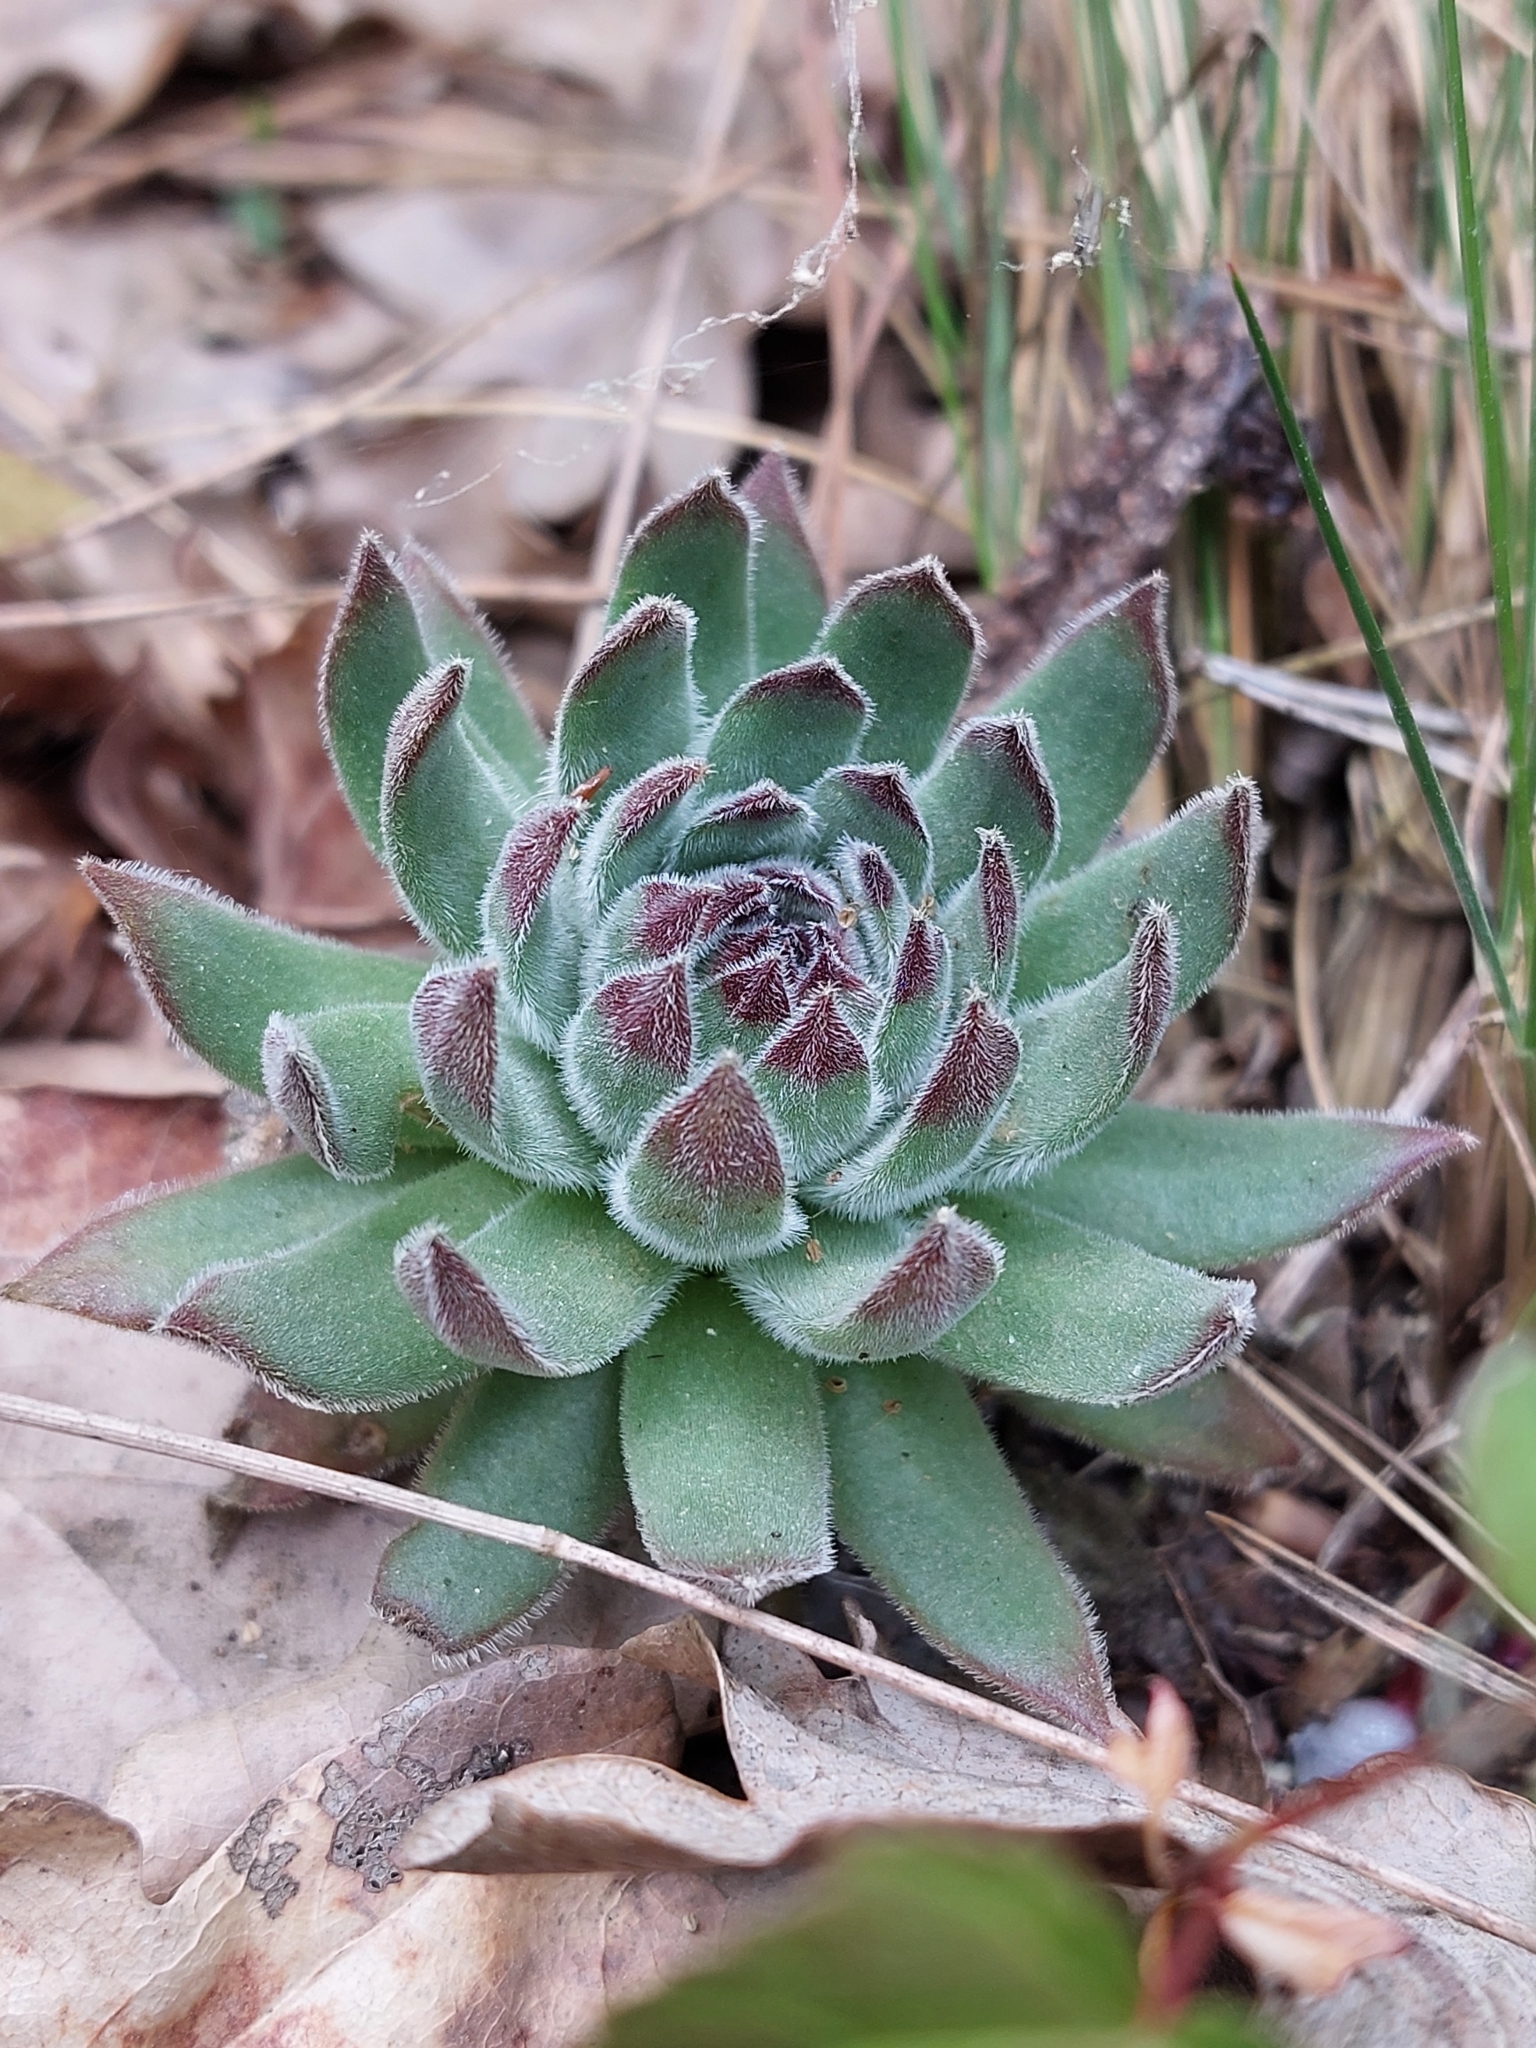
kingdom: Plantae
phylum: Tracheophyta
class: Magnoliopsida
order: Saxifragales
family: Crassulaceae
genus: Sempervivum
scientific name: Sempervivum ruthenicum
